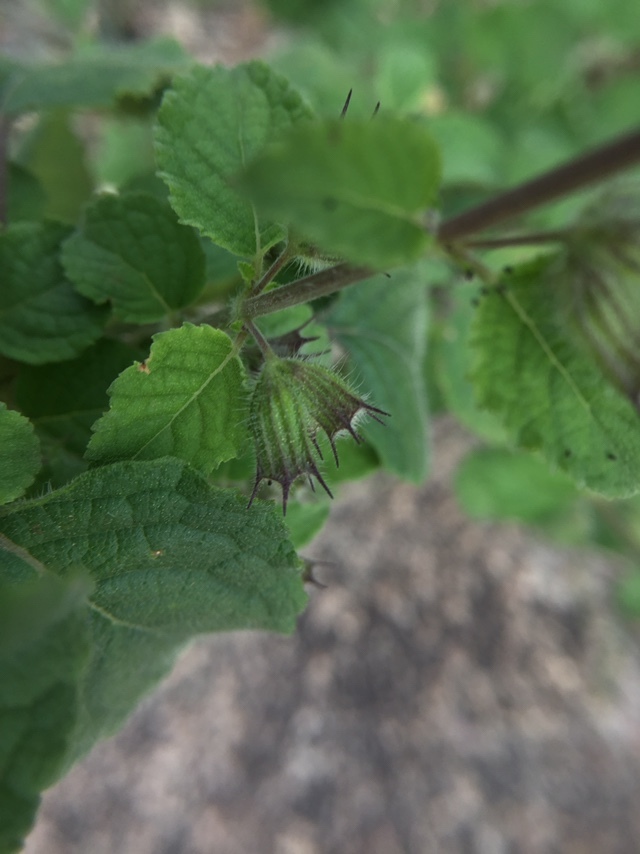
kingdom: Plantae
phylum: Tracheophyta
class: Magnoliopsida
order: Lamiales
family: Lamiaceae
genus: Mesosphaerum
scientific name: Mesosphaerum suaveolens
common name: Pignut
